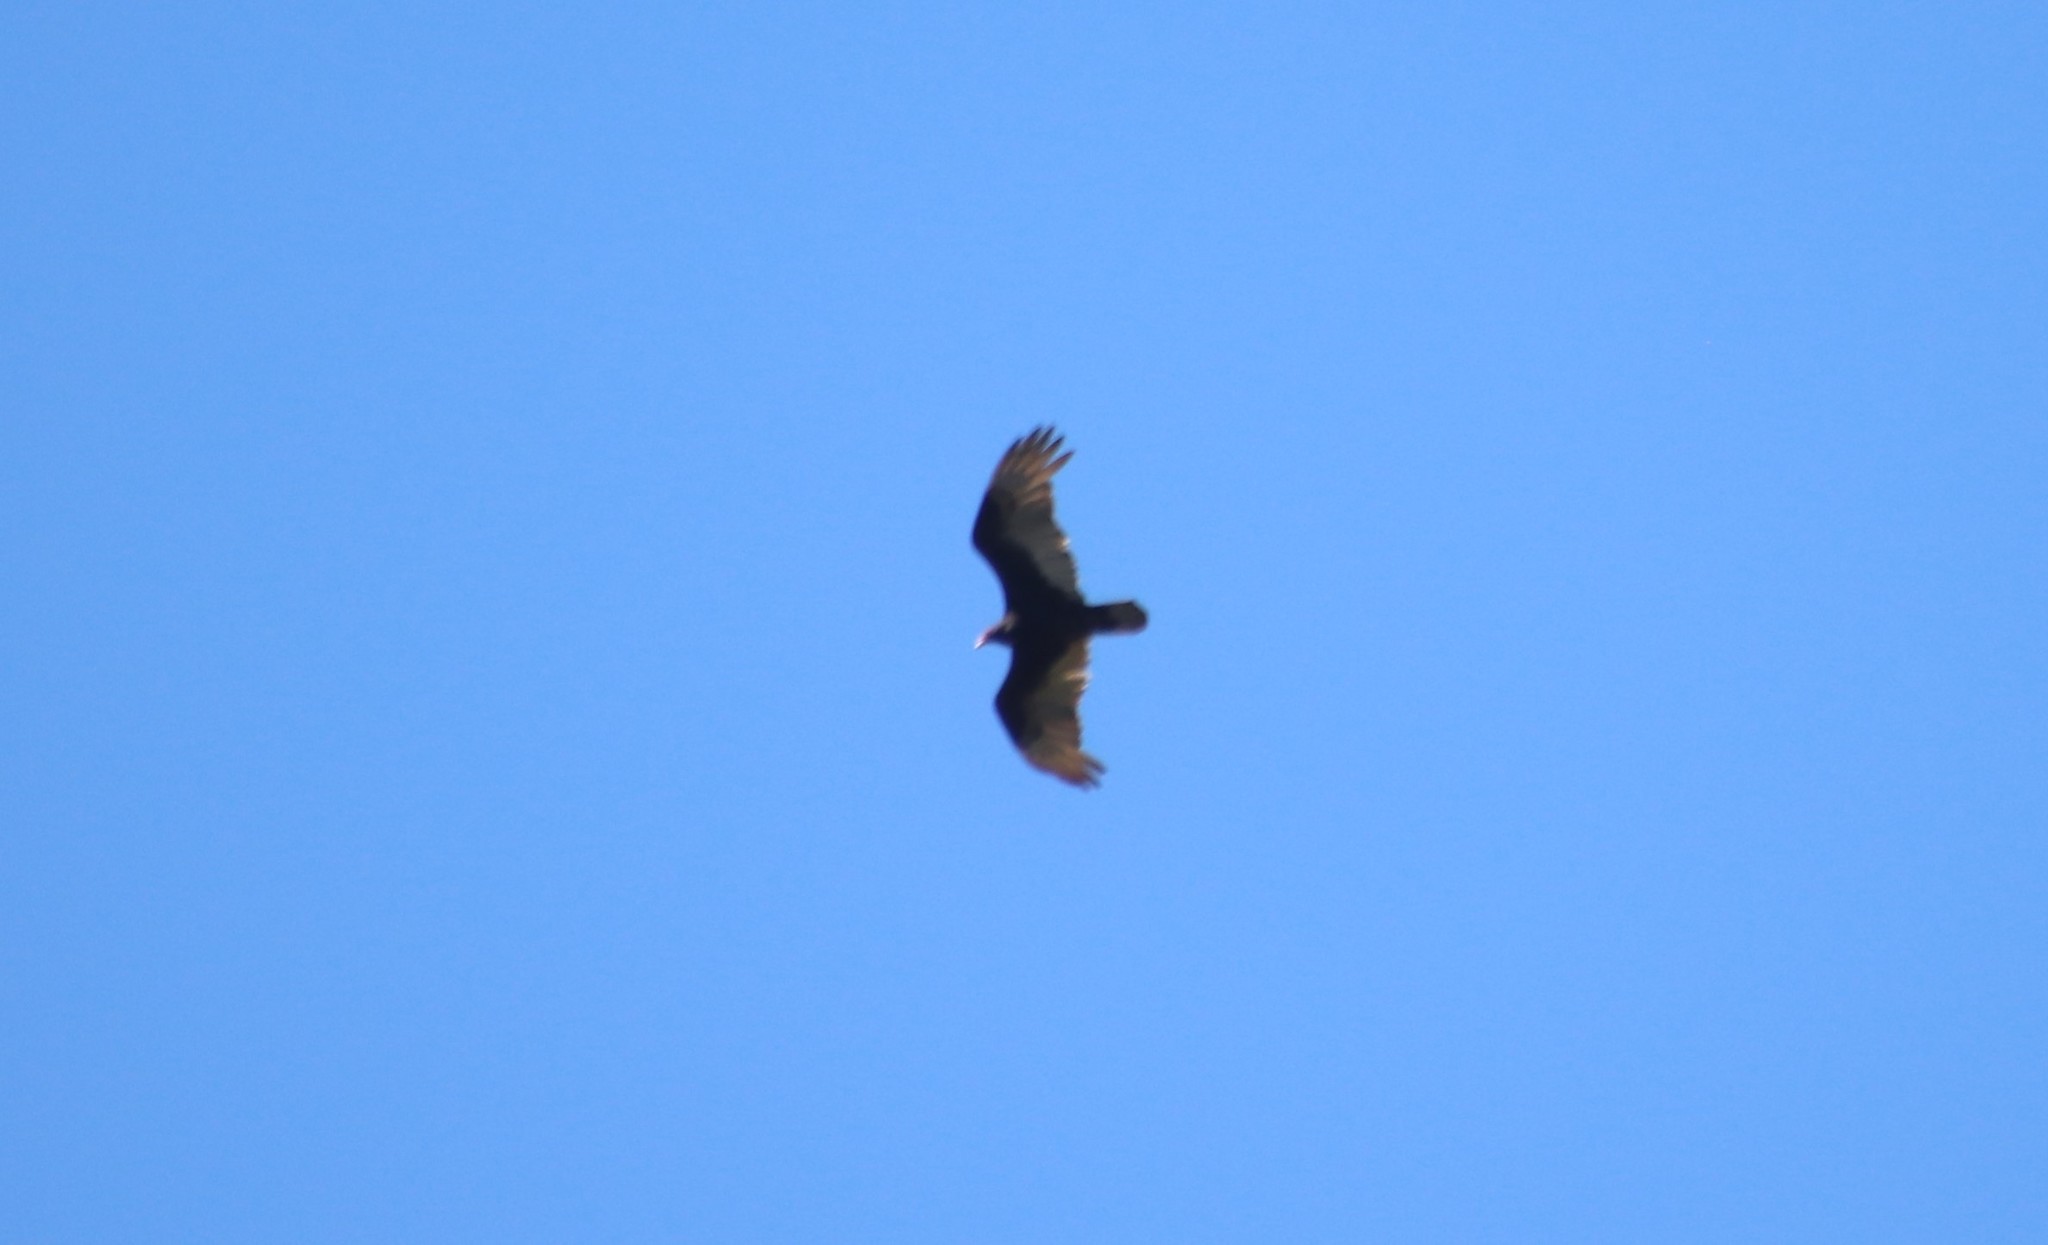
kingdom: Animalia
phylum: Chordata
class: Aves
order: Accipitriformes
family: Cathartidae
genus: Cathartes
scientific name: Cathartes aura
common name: Turkey vulture
